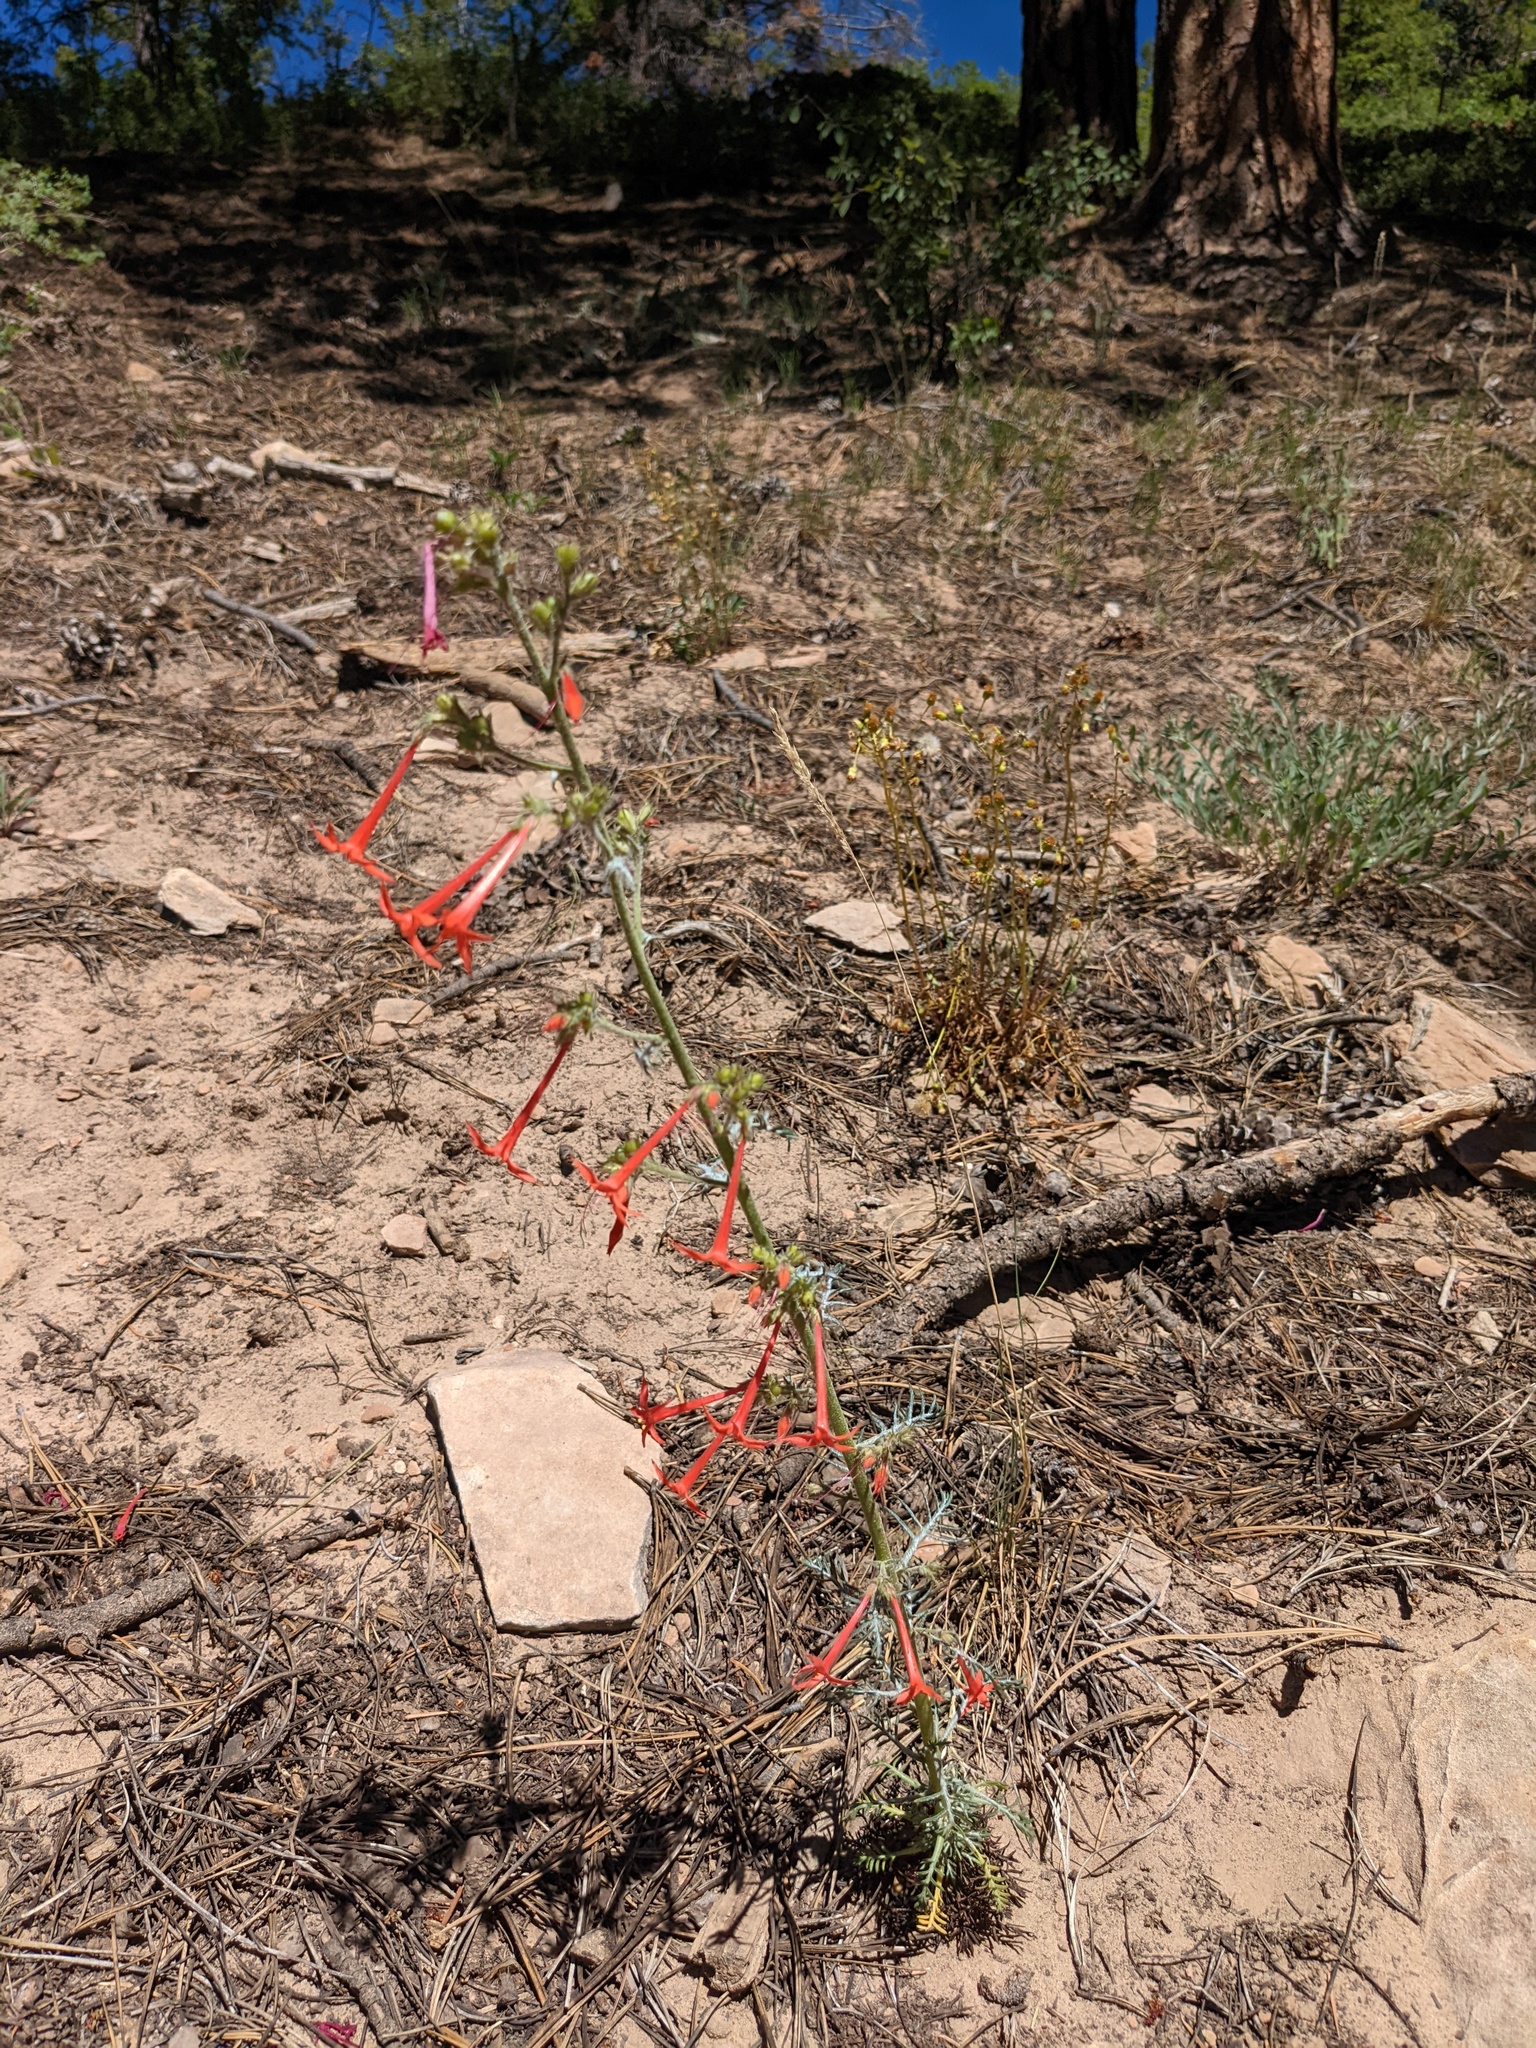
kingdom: Plantae
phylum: Tracheophyta
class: Magnoliopsida
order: Ericales
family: Polemoniaceae
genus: Ipomopsis
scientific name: Ipomopsis aggregata
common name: Scarlet gilia
